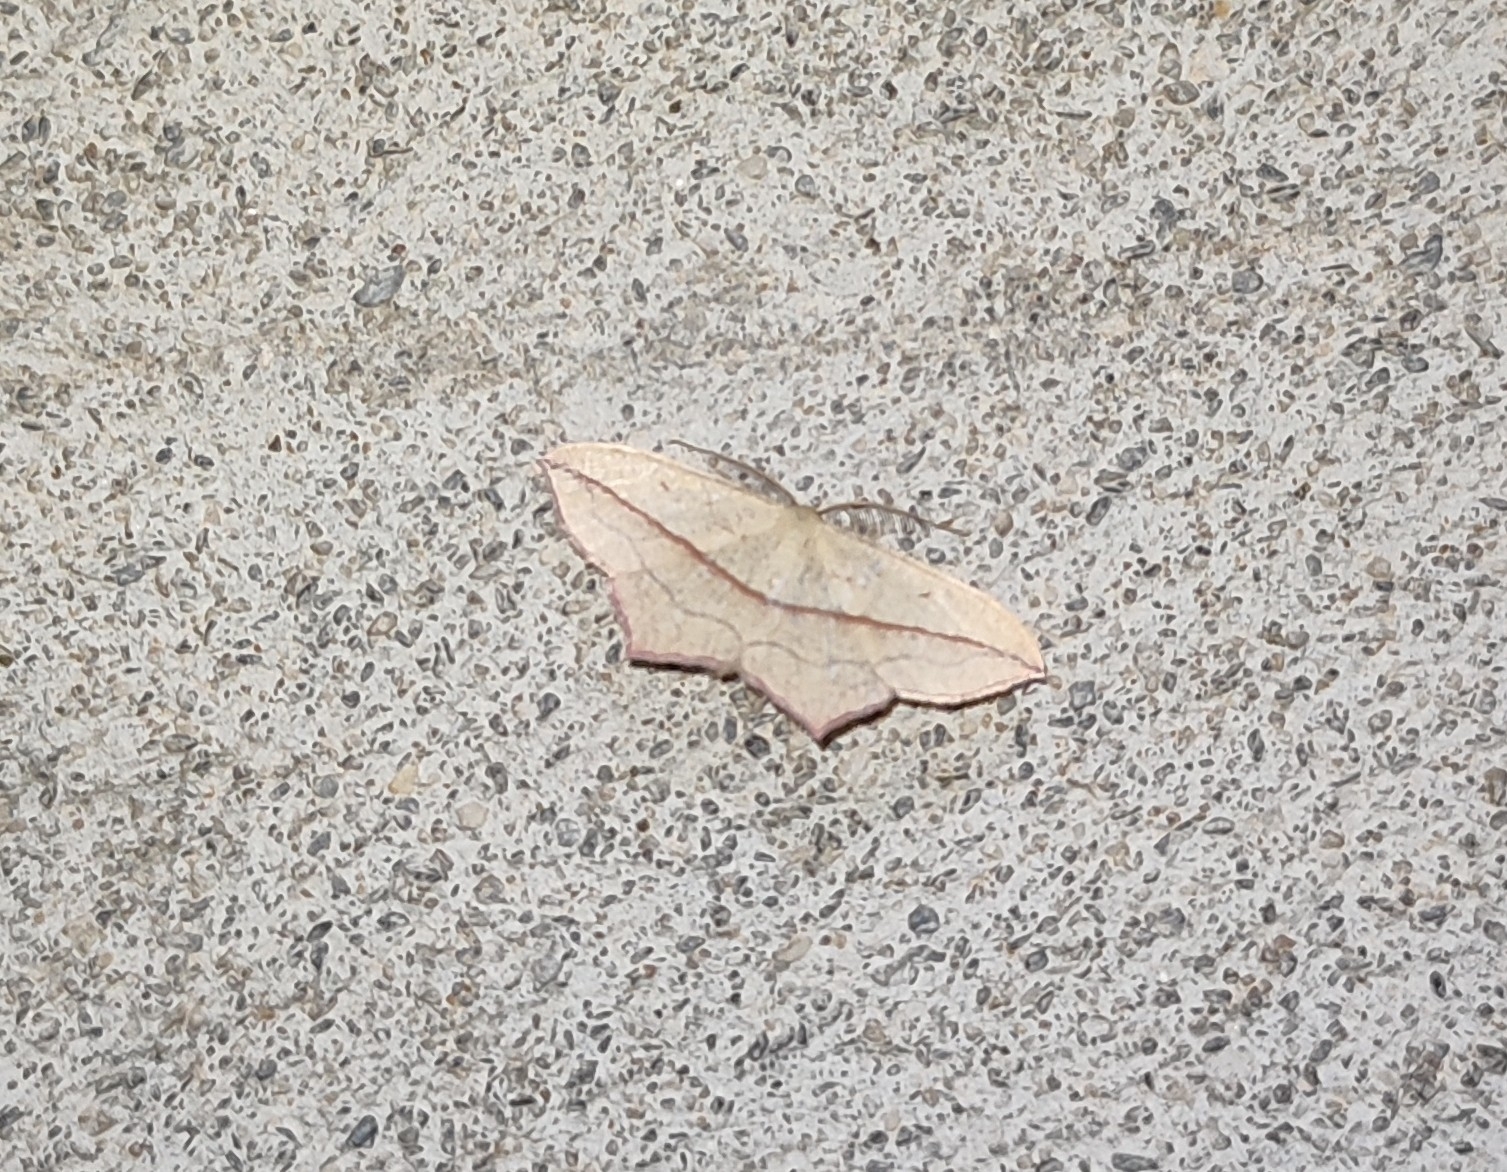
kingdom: Animalia
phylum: Arthropoda
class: Insecta
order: Lepidoptera
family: Geometridae
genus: Timandra
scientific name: Timandra comae
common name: Blood-vein
